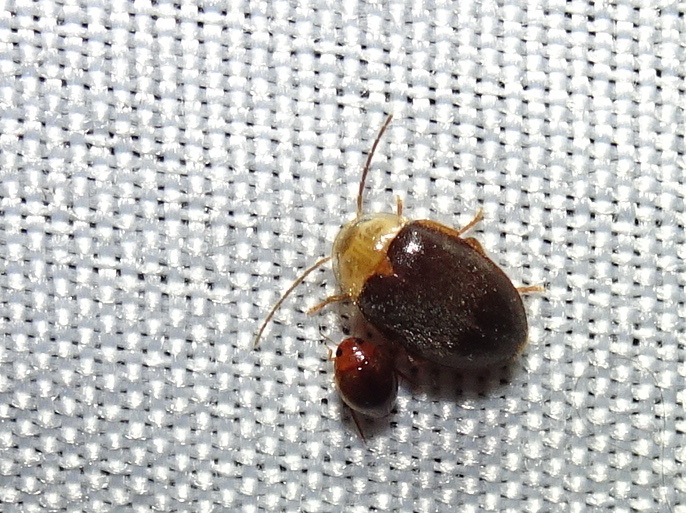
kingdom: Animalia
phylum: Arthropoda
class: Insecta
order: Coleoptera
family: Dytiscidae
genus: Desmopachria
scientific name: Desmopachria
